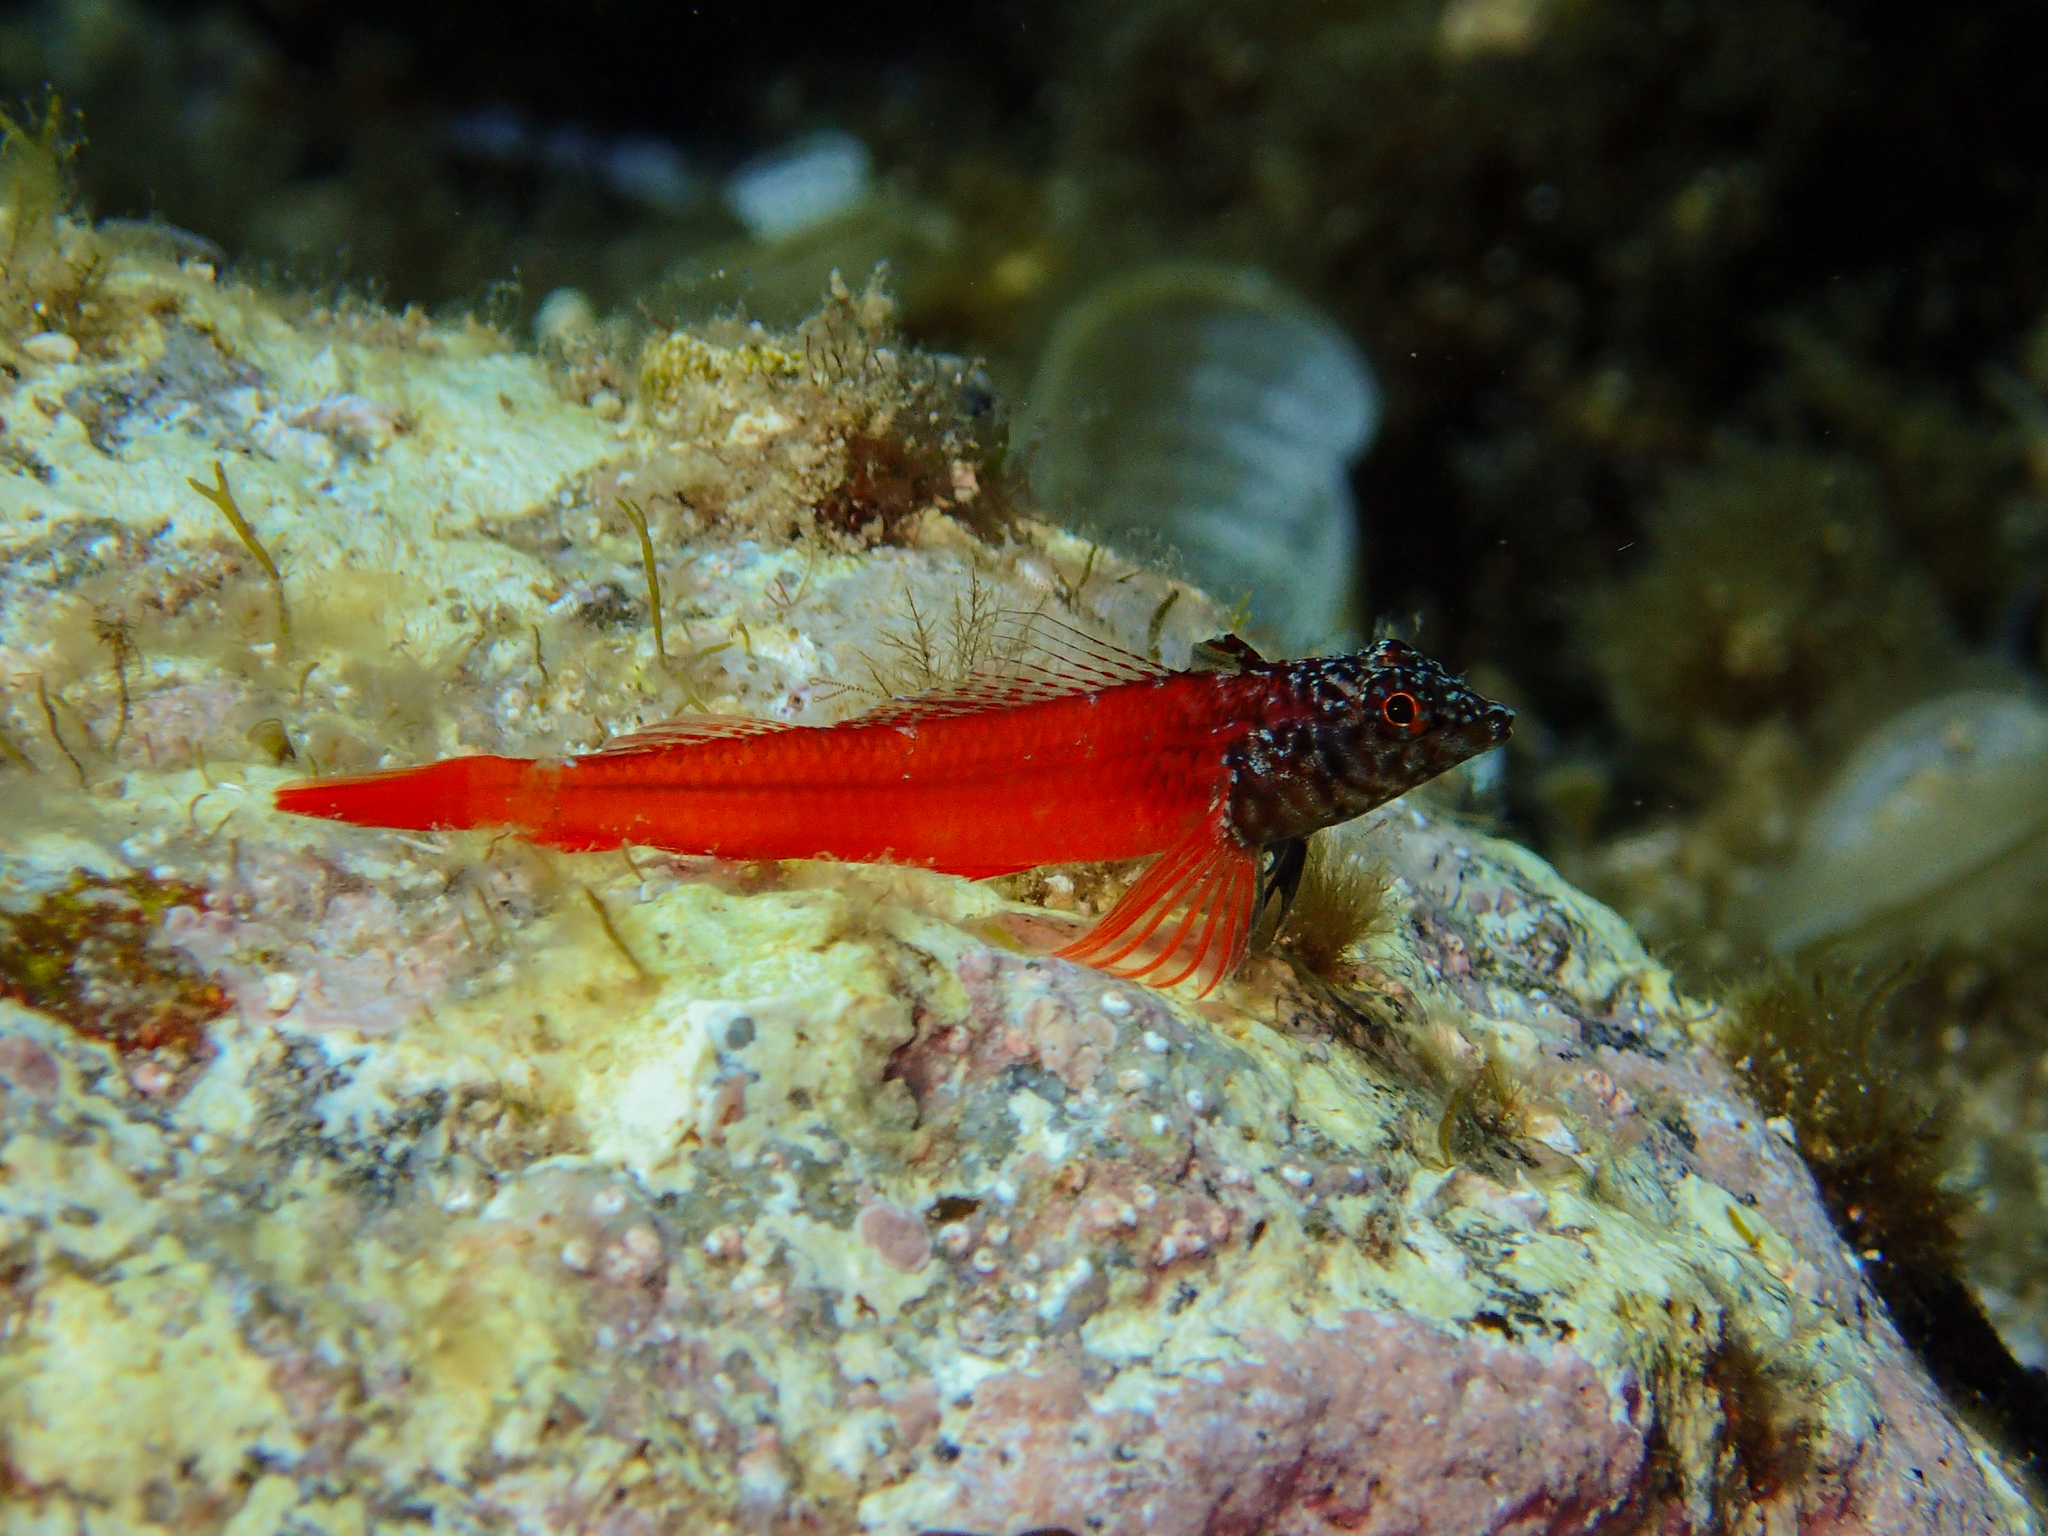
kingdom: Animalia
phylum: Chordata
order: Perciformes
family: Tripterygiidae
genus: Tripterygion
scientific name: Tripterygion melanurum
